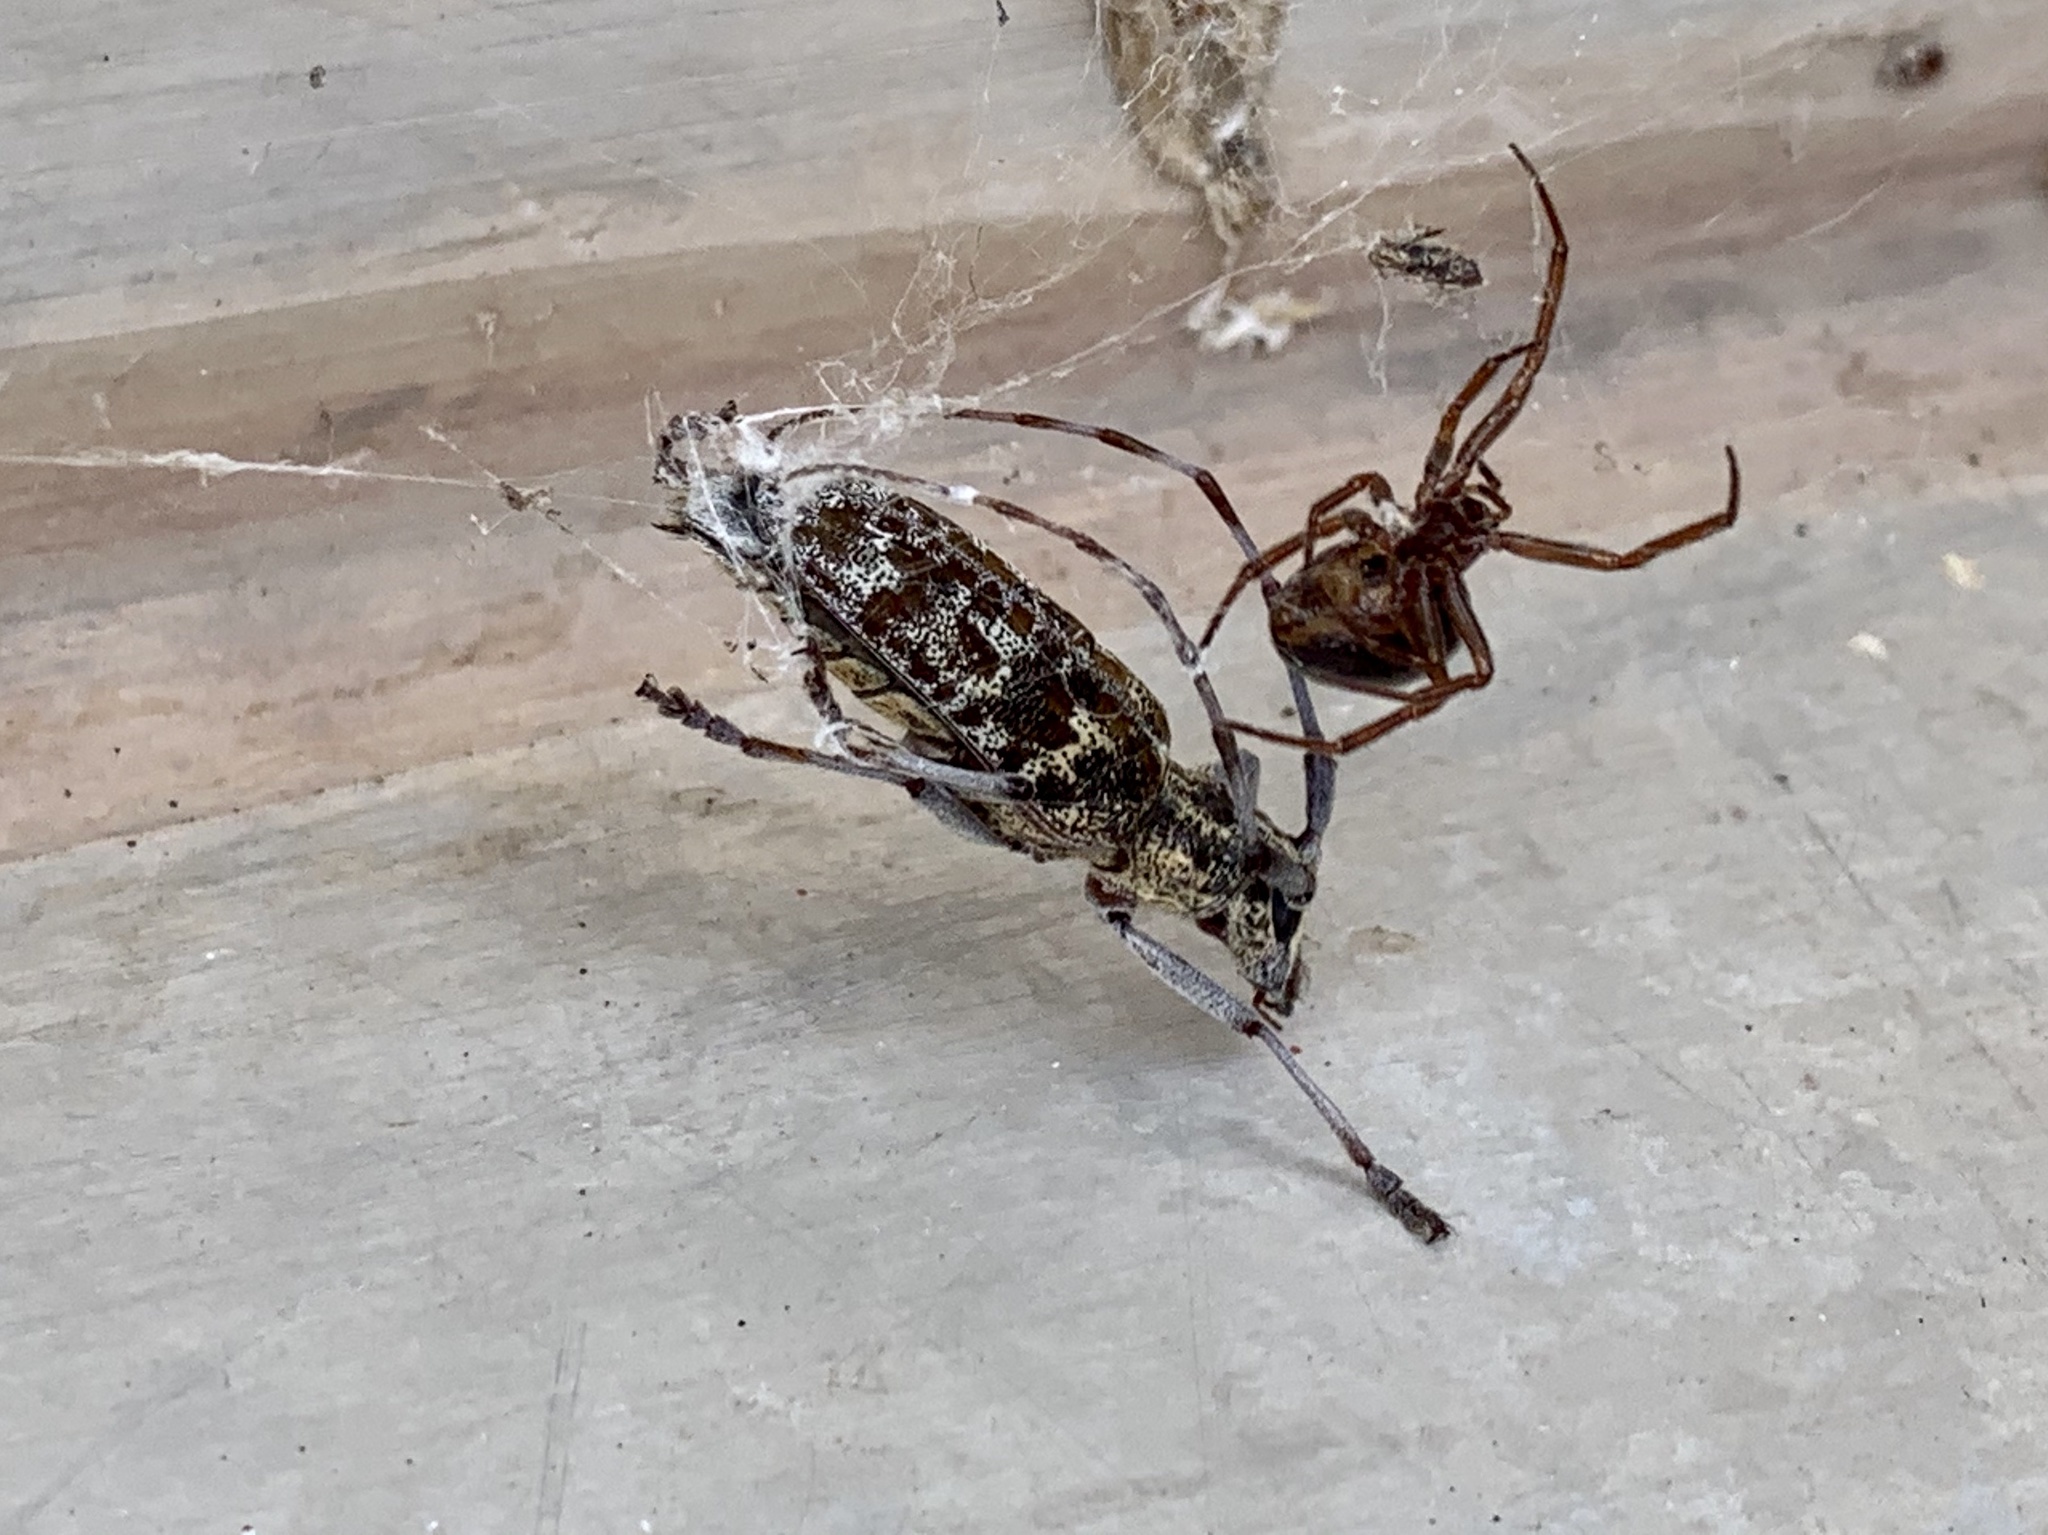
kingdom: Animalia
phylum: Arthropoda
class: Insecta
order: Coleoptera
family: Cerambycidae
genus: Monochamus
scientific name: Monochamus clamator
